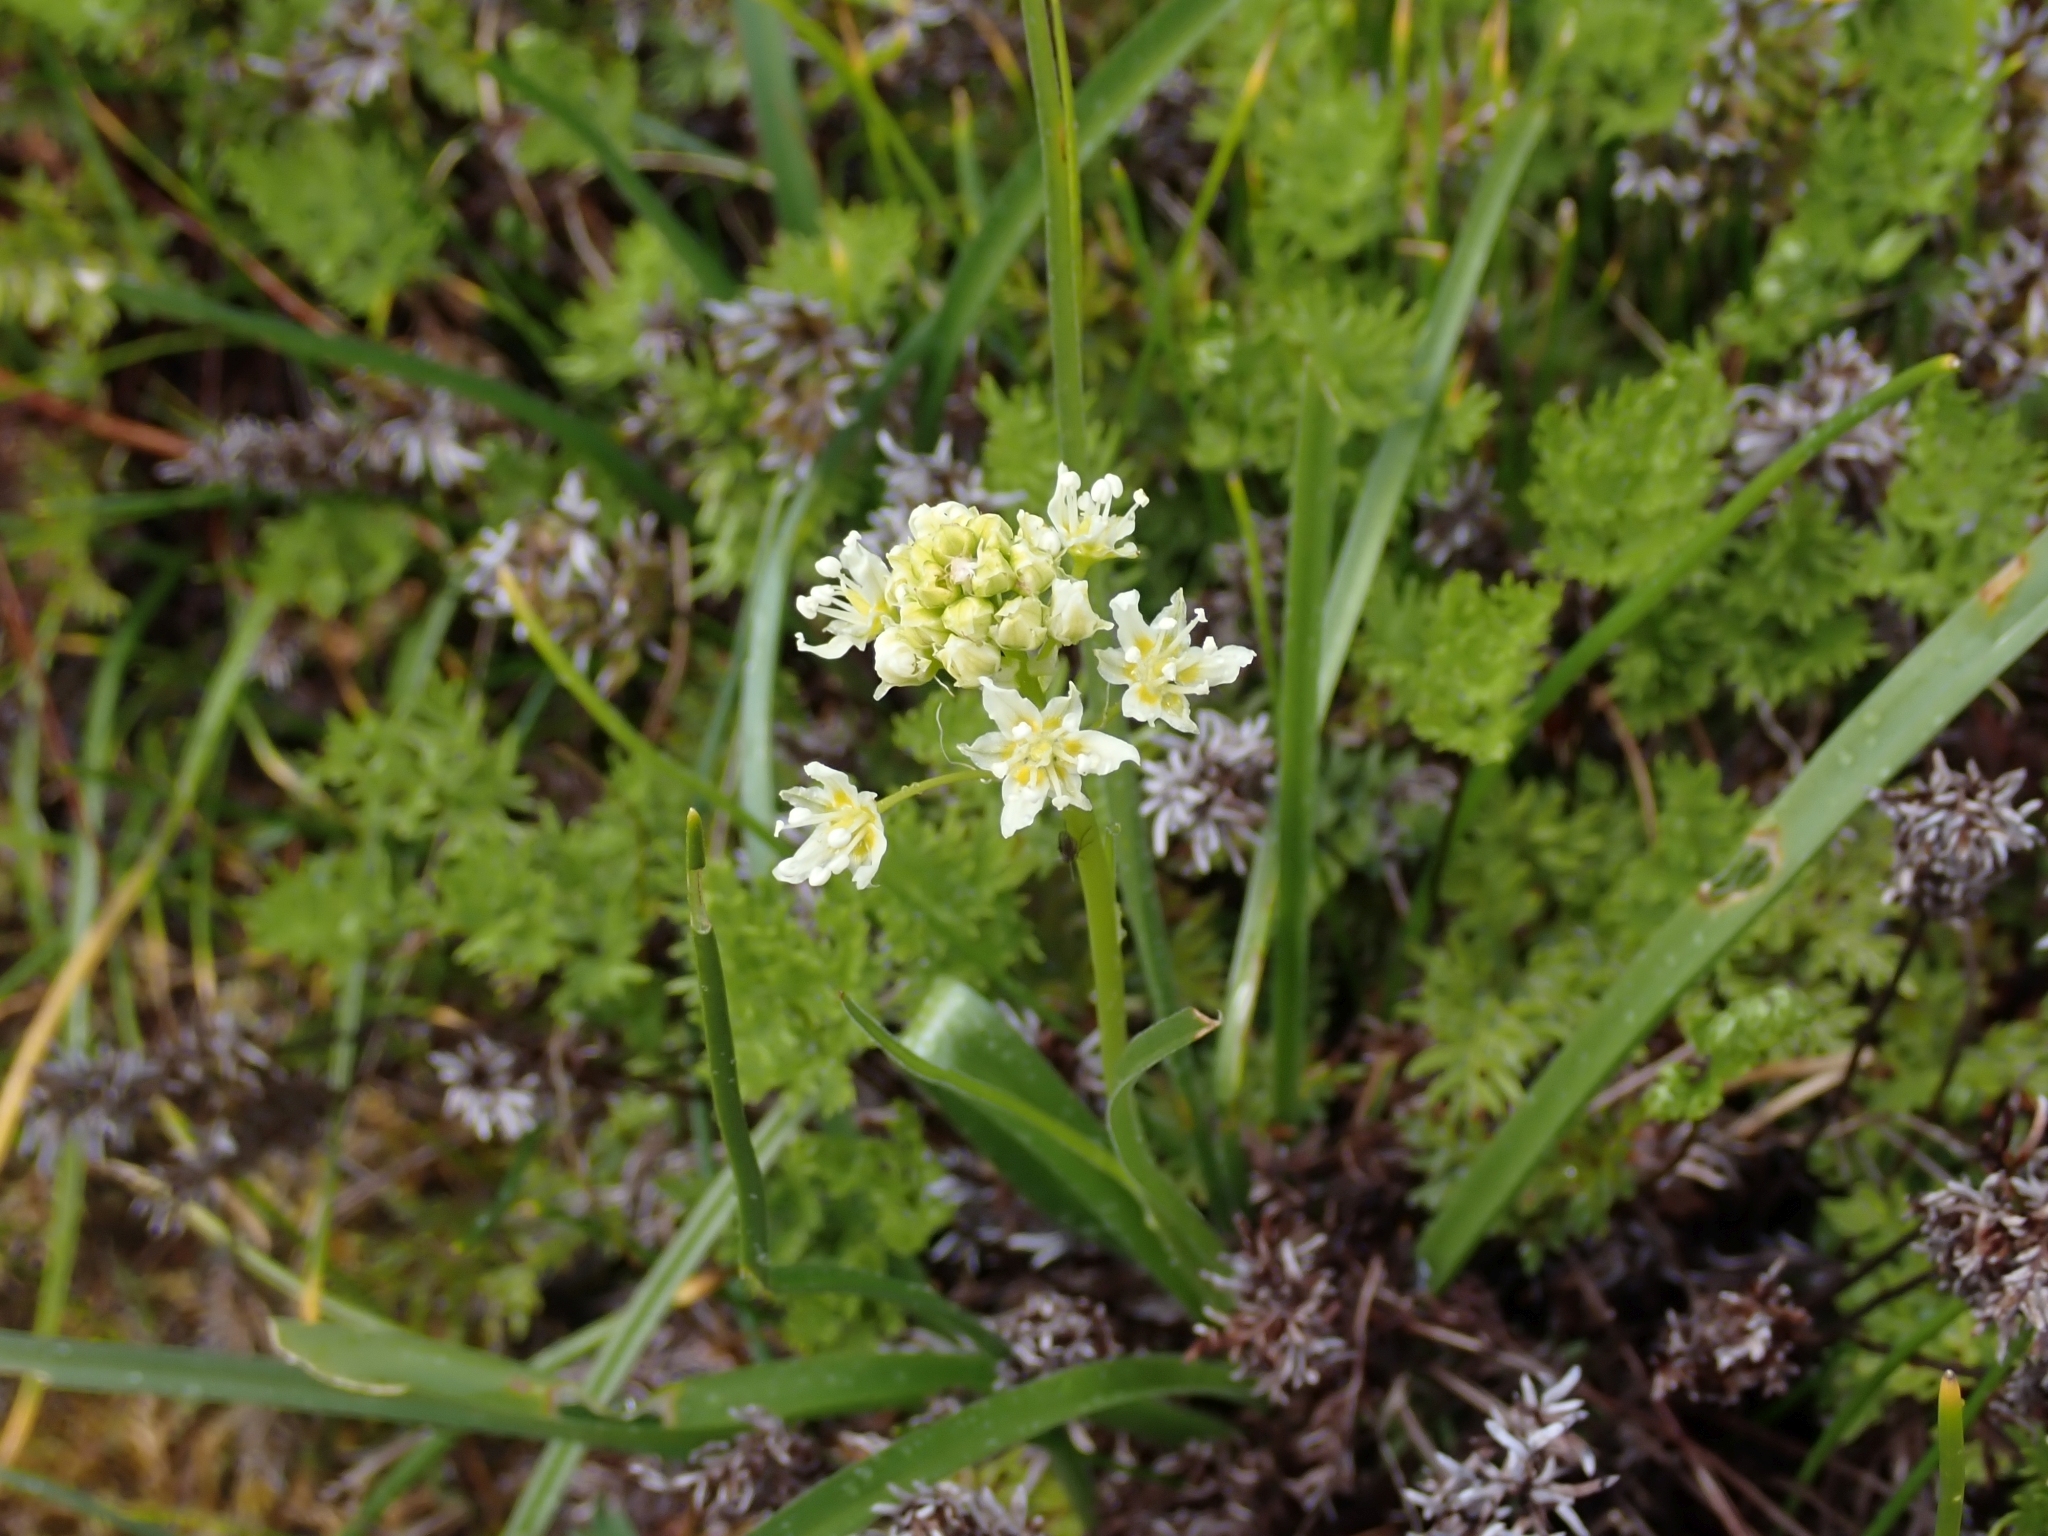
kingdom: Plantae
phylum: Tracheophyta
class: Liliopsida
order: Liliales
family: Melanthiaceae
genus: Toxicoscordion
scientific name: Toxicoscordion venenosum
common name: Meadow death camas
